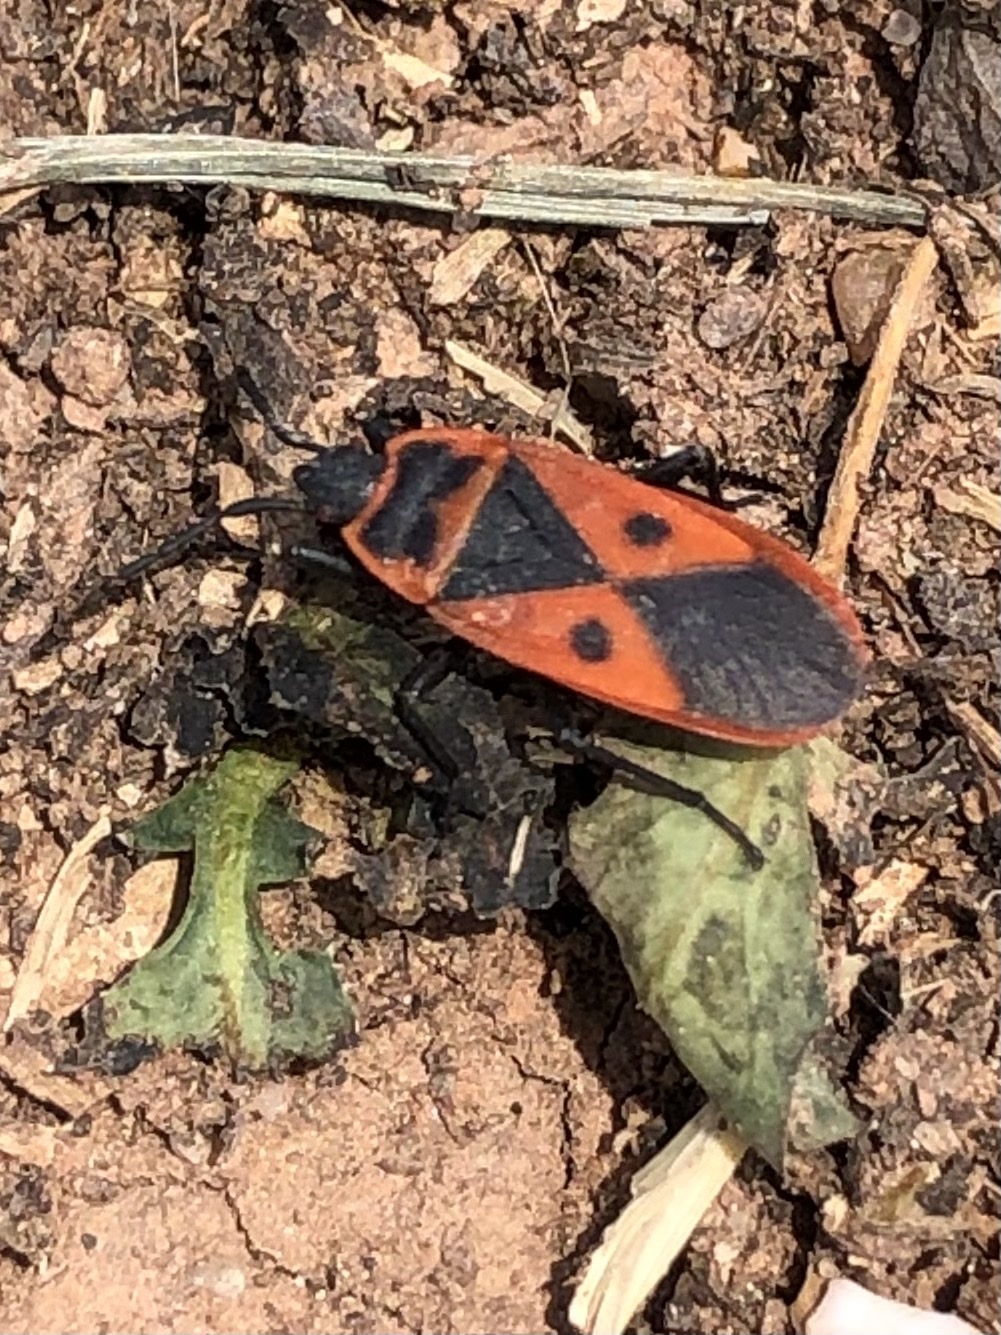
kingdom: Animalia
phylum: Arthropoda
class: Insecta
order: Hemiptera
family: Pyrrhocoridae
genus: Scantius
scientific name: Scantius aegyptius
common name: Red bug
